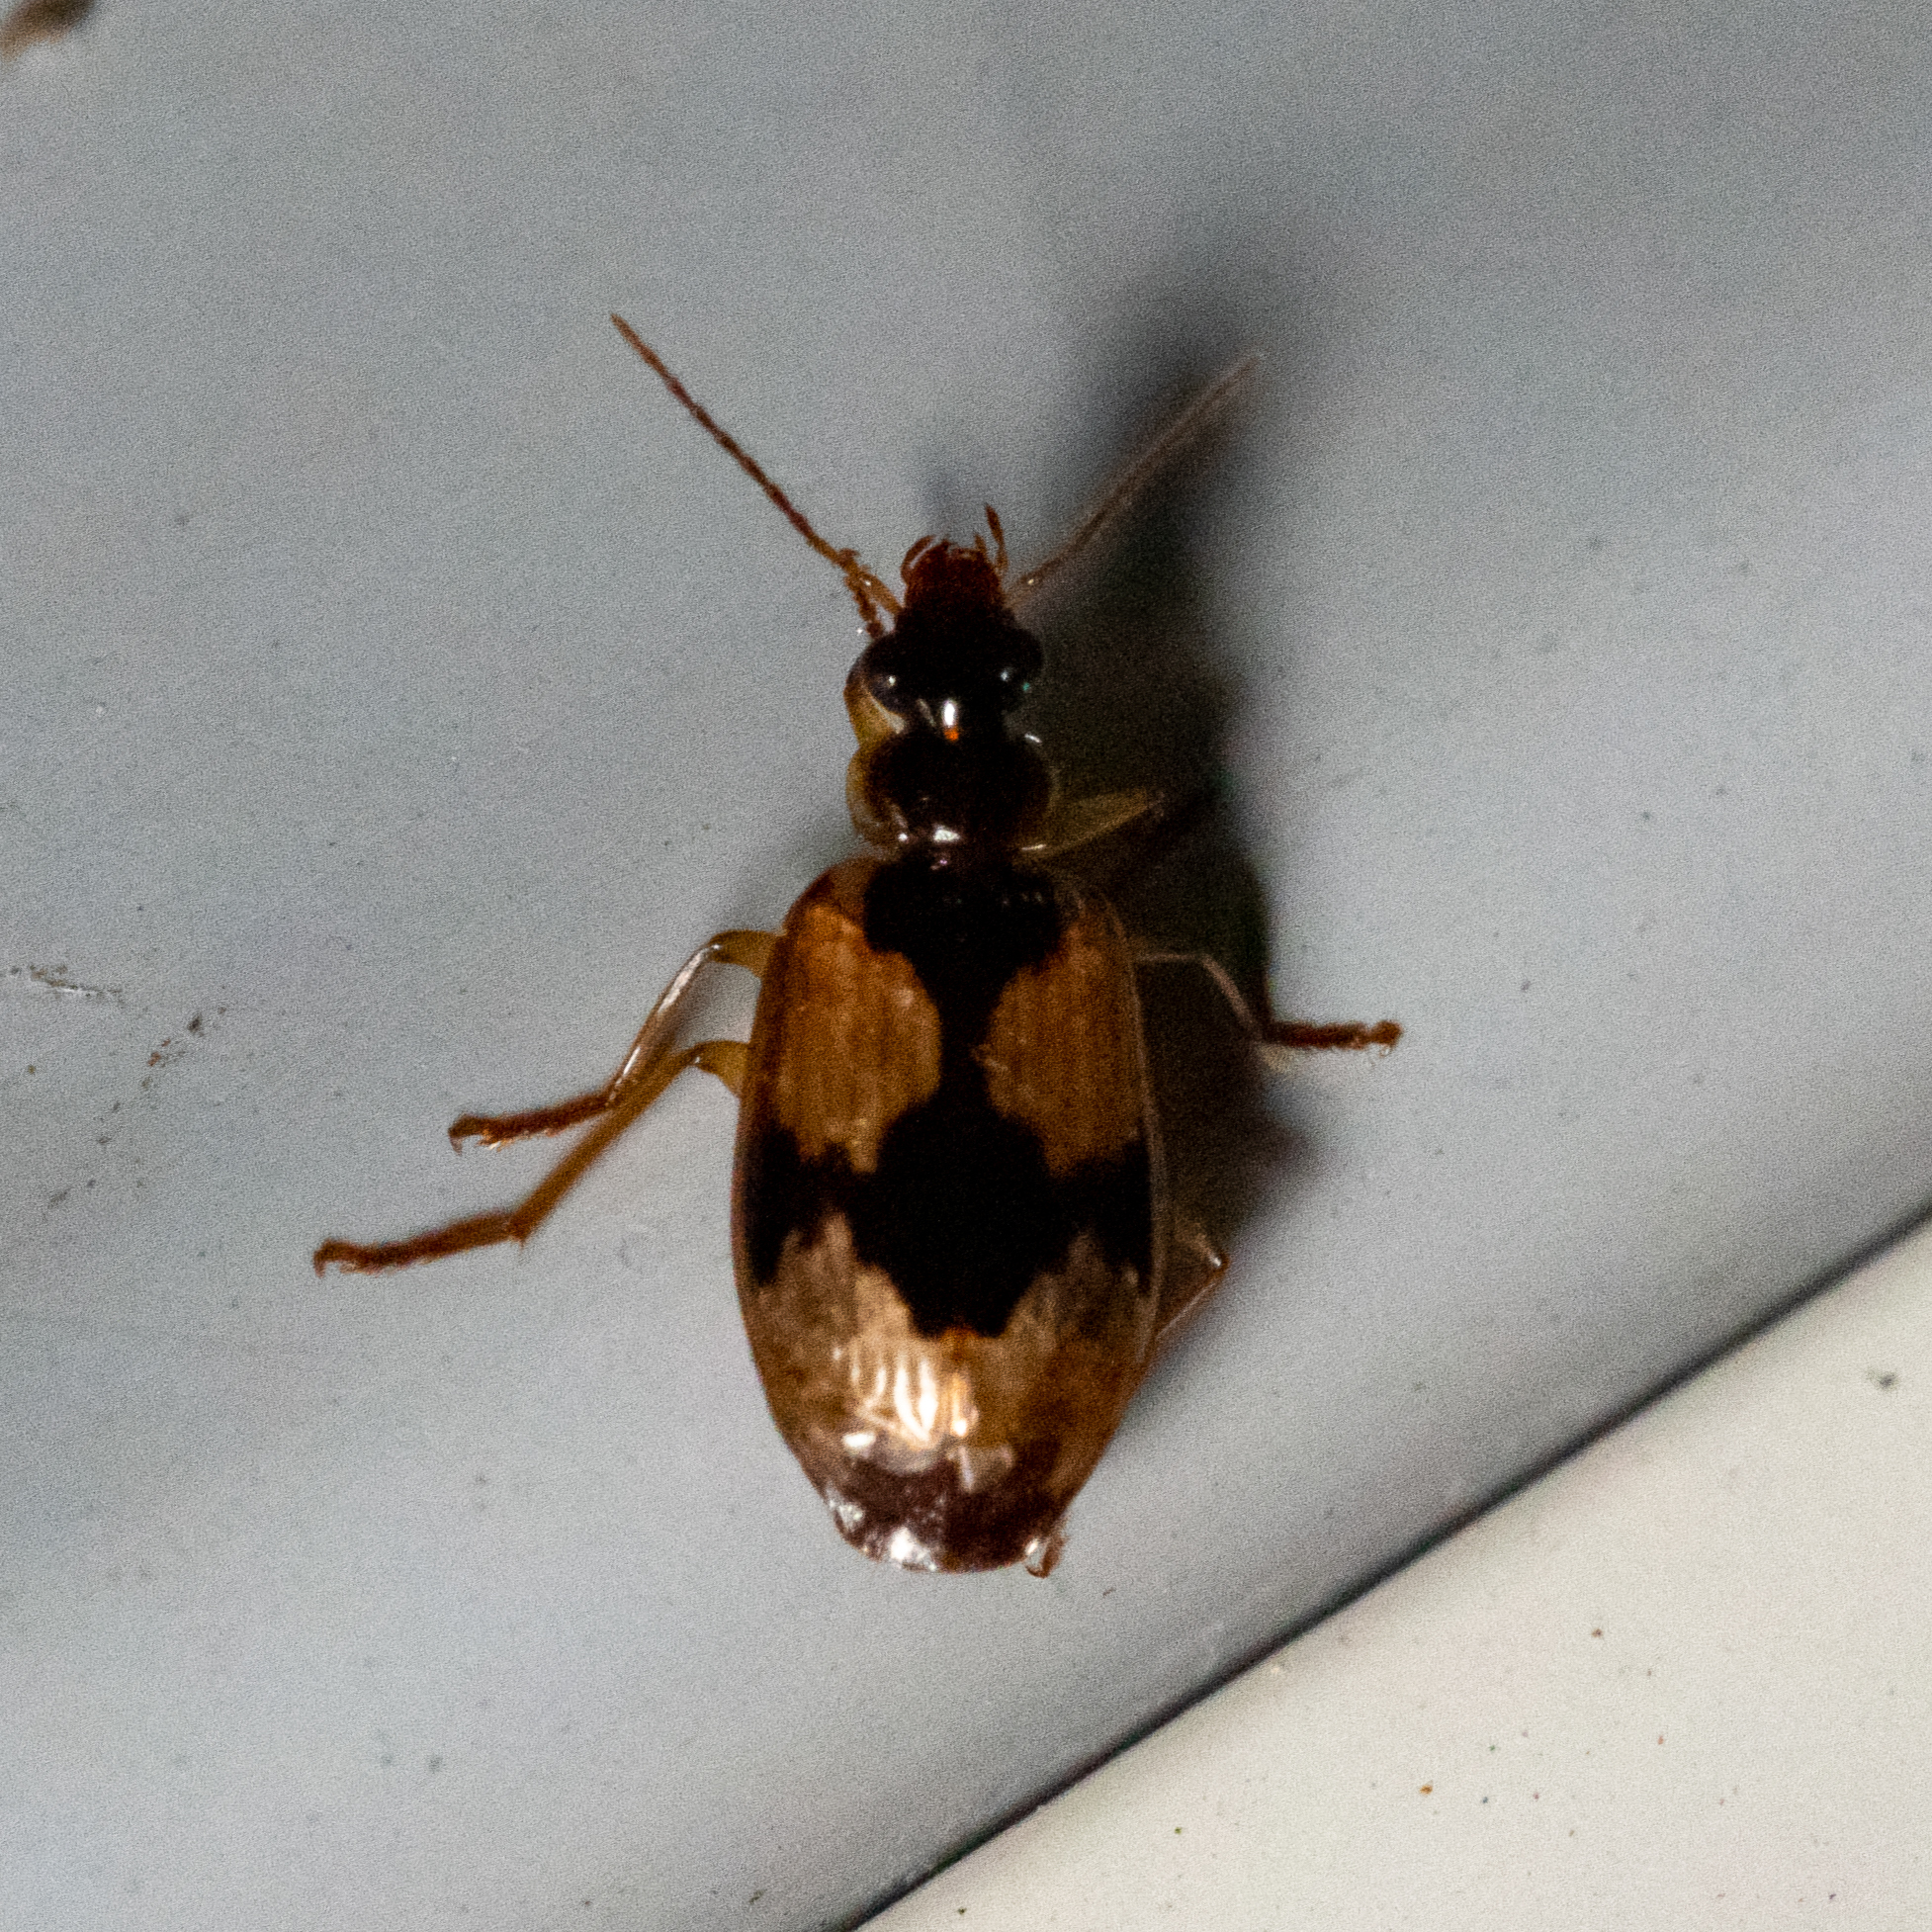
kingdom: Animalia
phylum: Arthropoda
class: Insecta
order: Coleoptera
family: Carabidae
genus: Lebia
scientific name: Lebia fuscata
